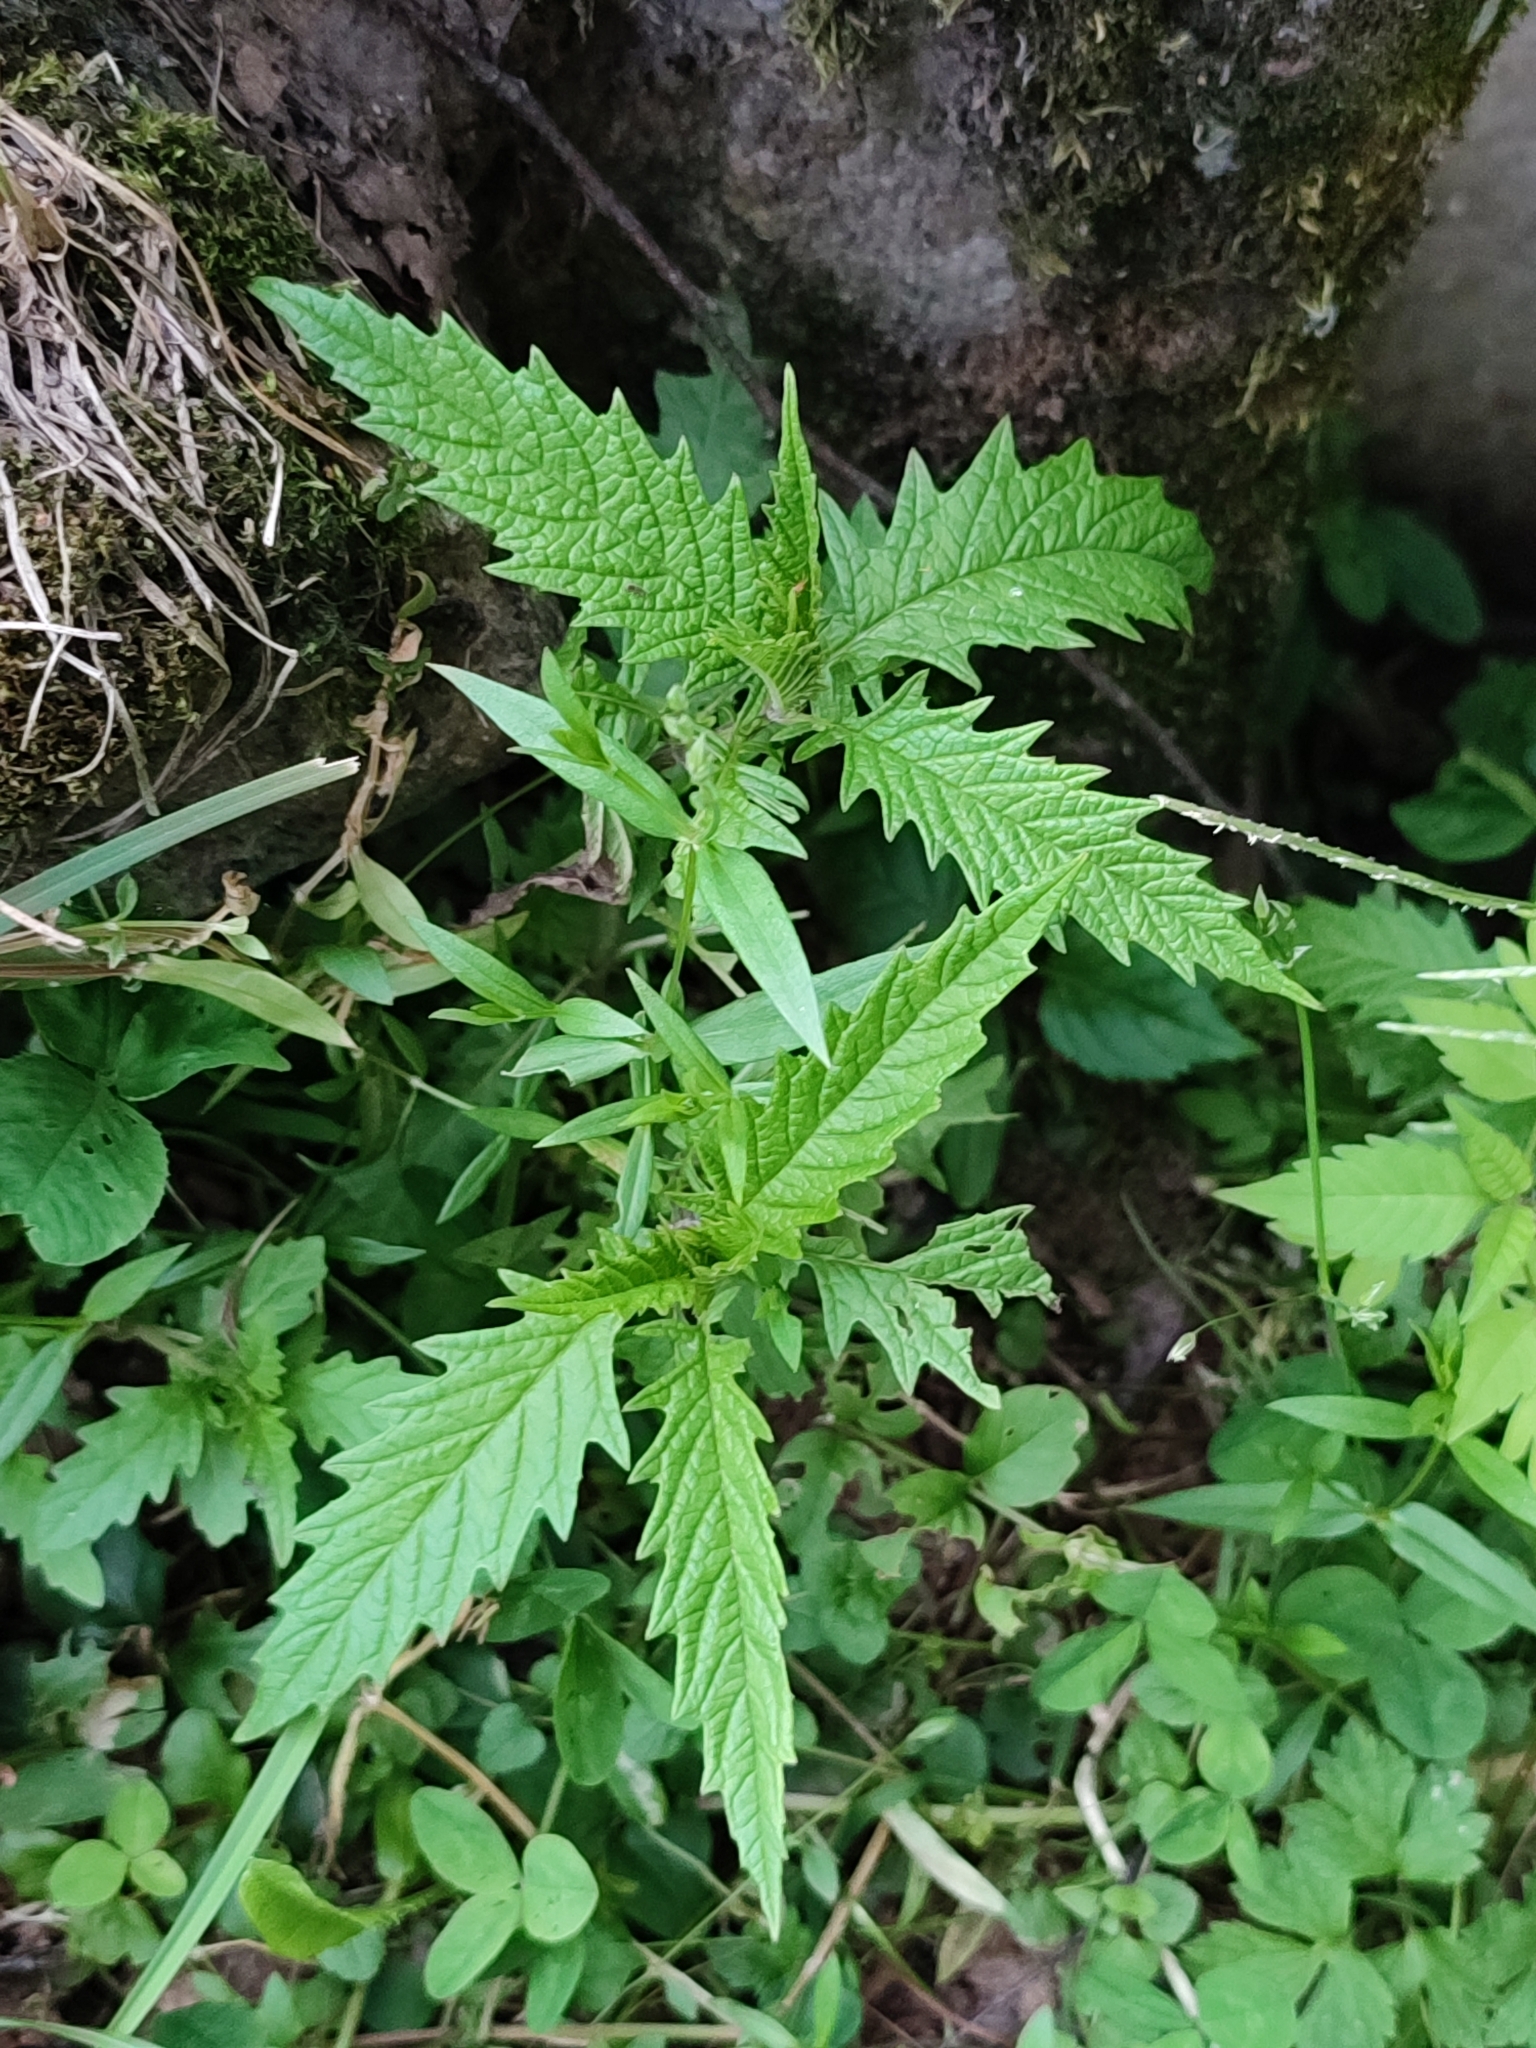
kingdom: Plantae
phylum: Tracheophyta
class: Magnoliopsida
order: Lamiales
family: Lamiaceae
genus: Lycopus
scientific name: Lycopus europaeus
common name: European bugleweed
